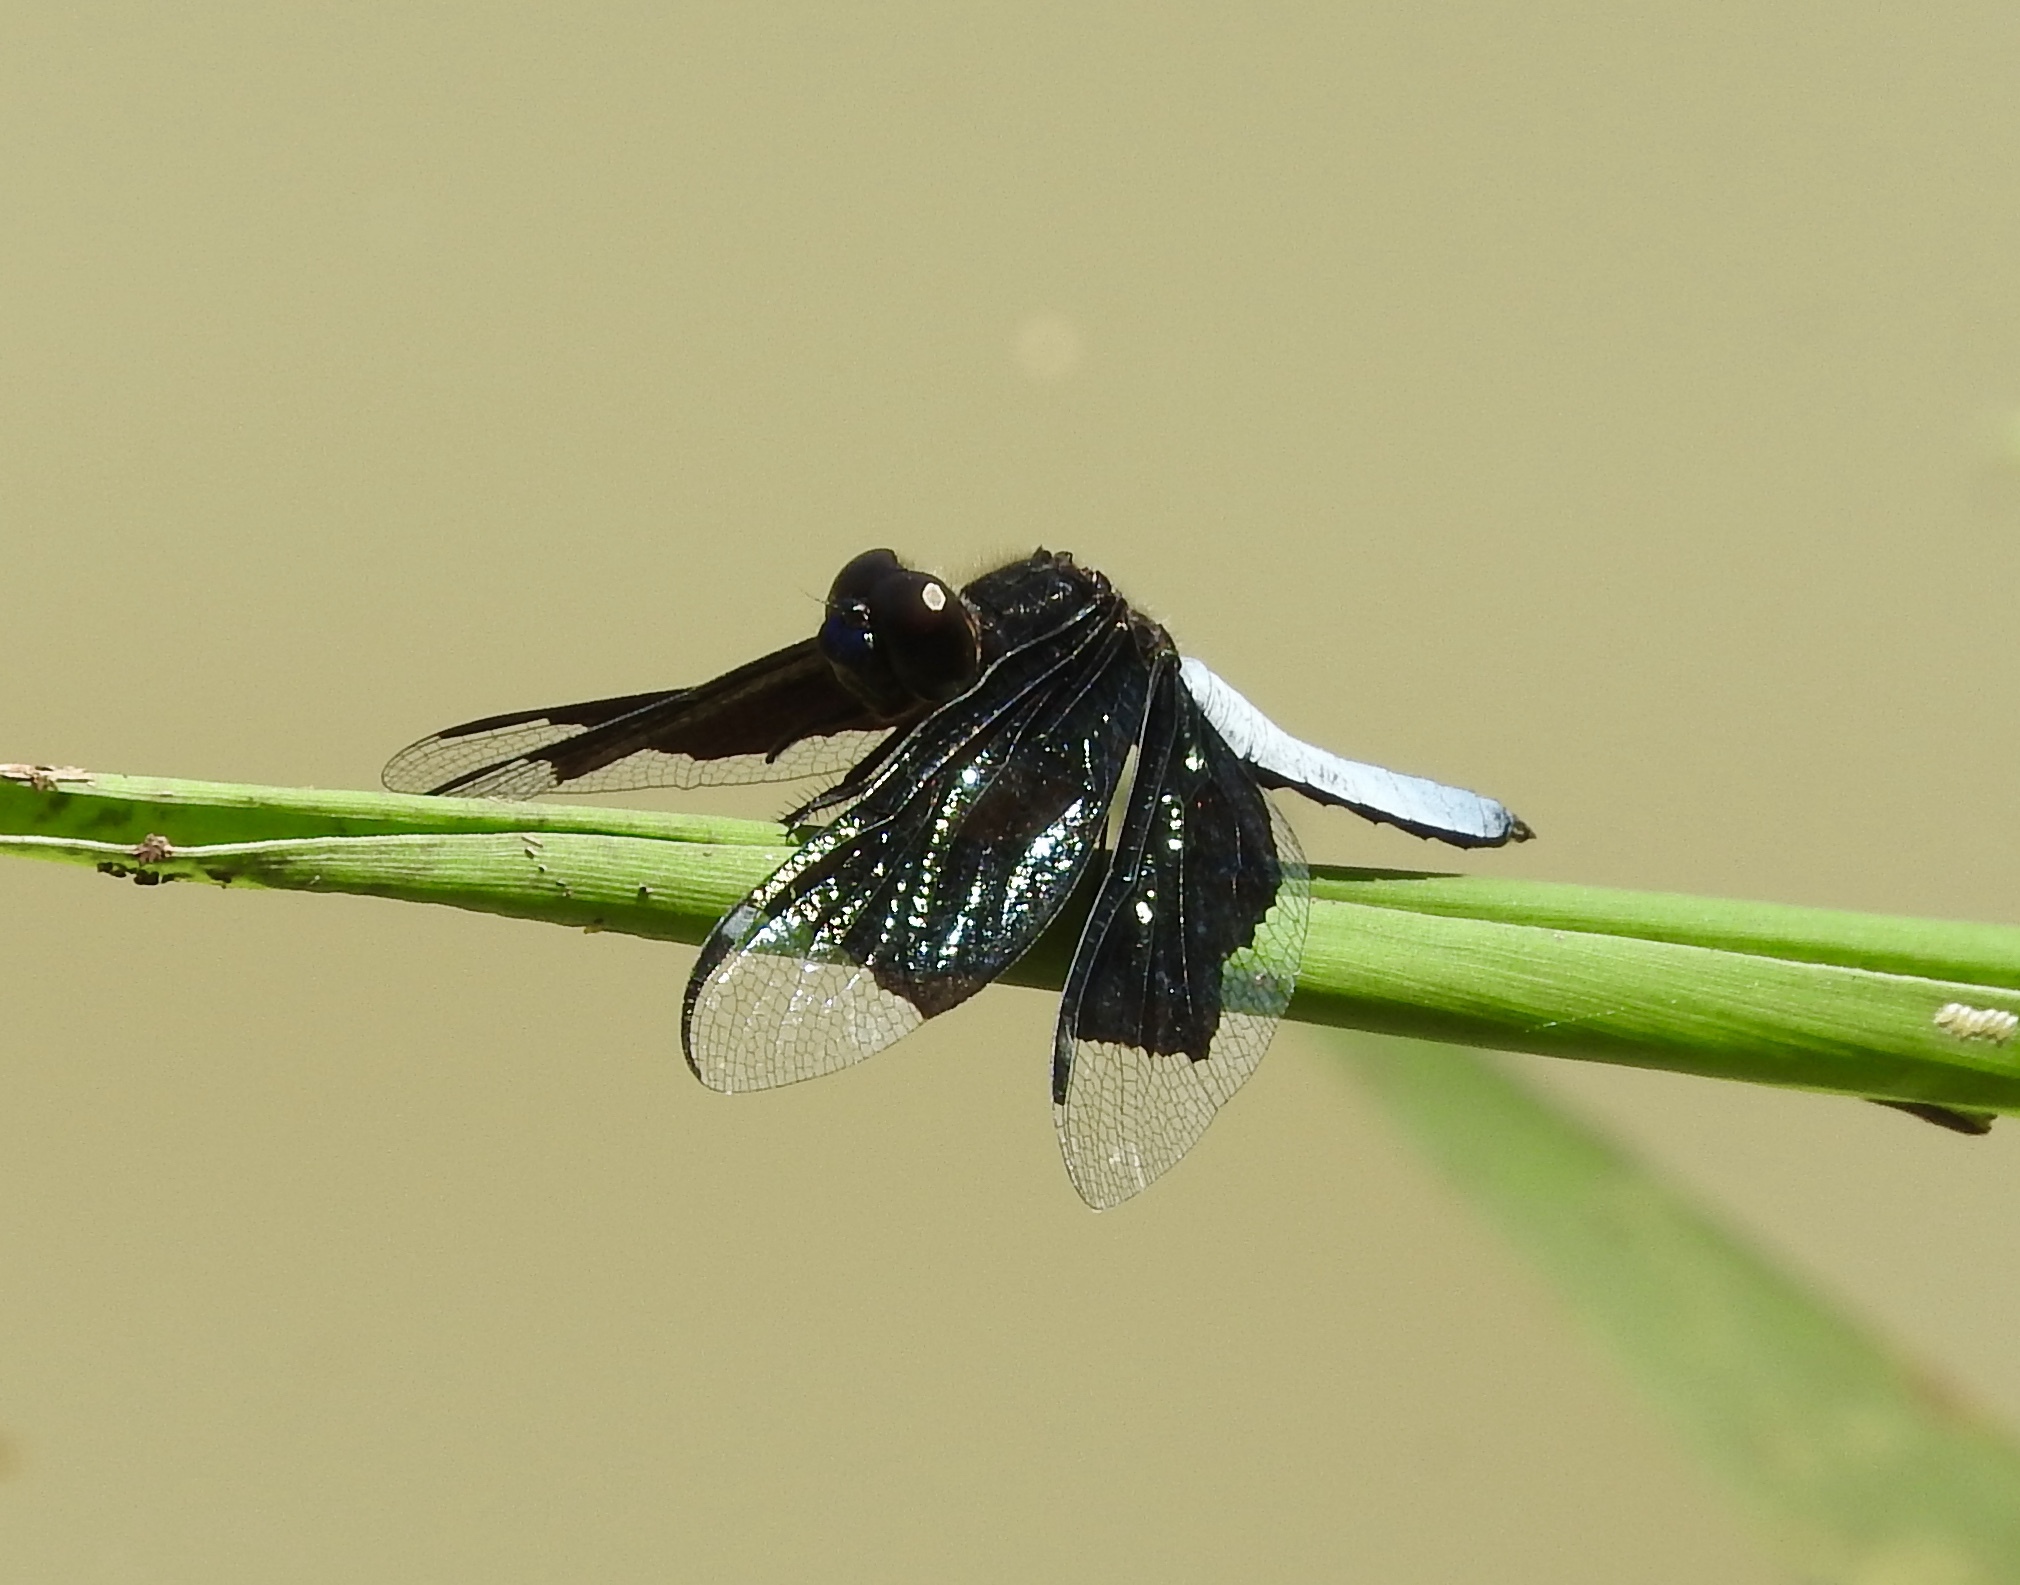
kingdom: Animalia
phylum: Arthropoda
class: Insecta
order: Odonata
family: Libellulidae
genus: Palpopleura
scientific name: Palpopleura lucia
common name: Lucia widow
